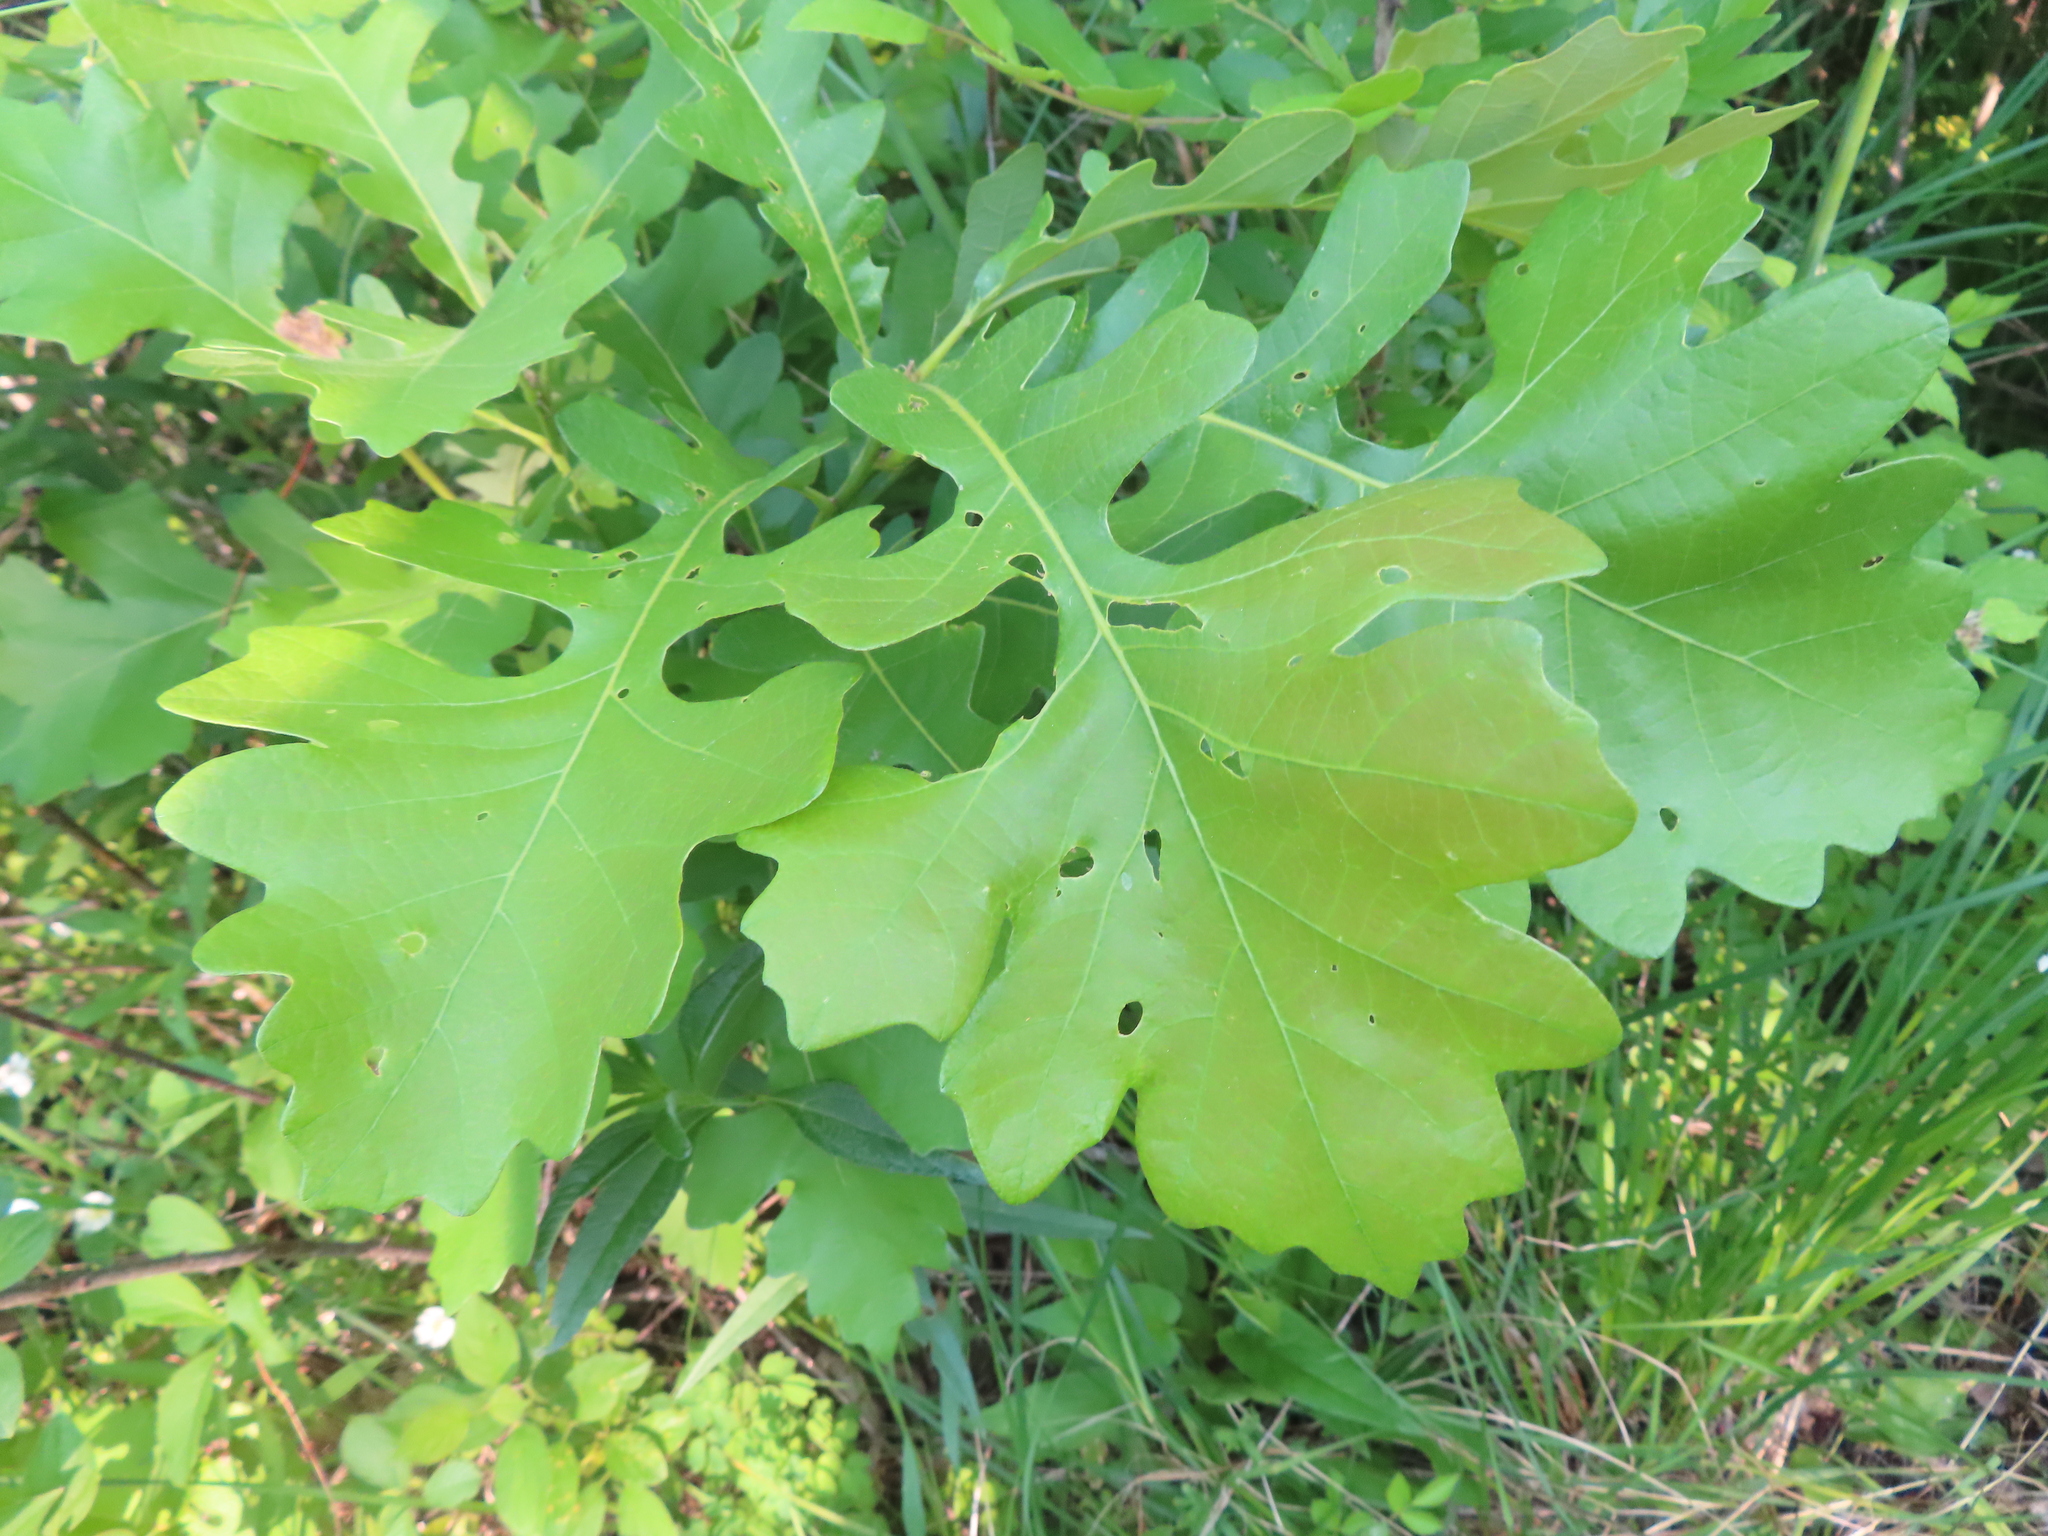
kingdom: Plantae
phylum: Tracheophyta
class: Magnoliopsida
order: Fagales
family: Fagaceae
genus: Quercus
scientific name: Quercus macrocarpa
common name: Bur oak
